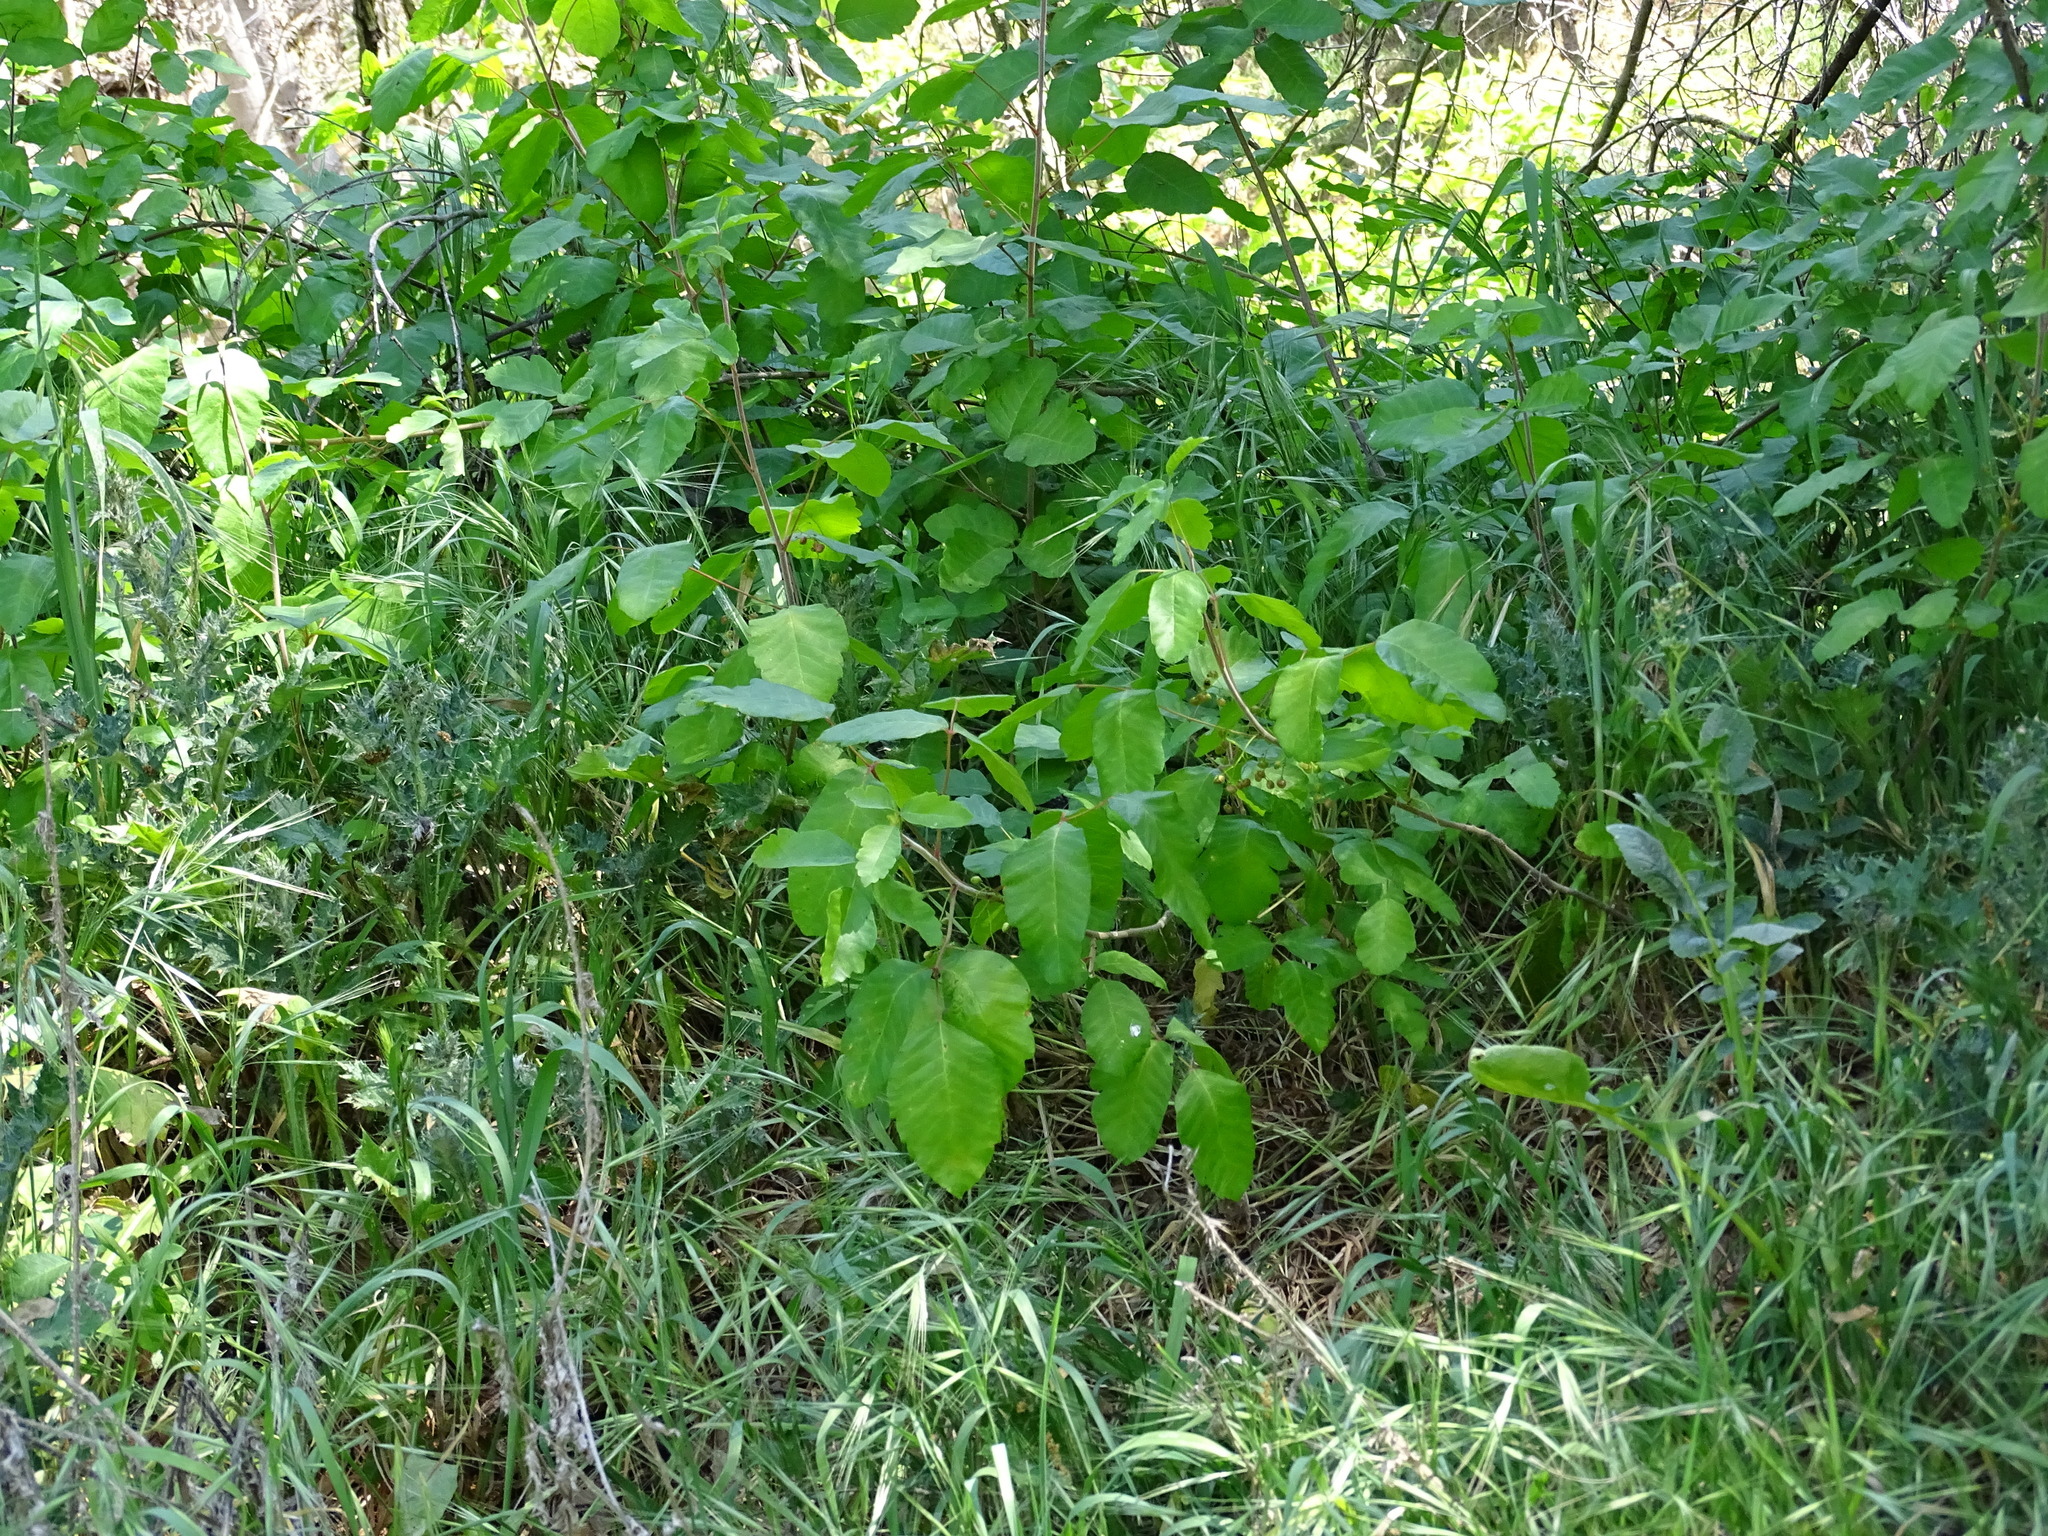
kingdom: Plantae
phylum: Tracheophyta
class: Magnoliopsida
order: Sapindales
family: Anacardiaceae
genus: Toxicodendron
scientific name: Toxicodendron diversilobum
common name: Pacific poison-oak
